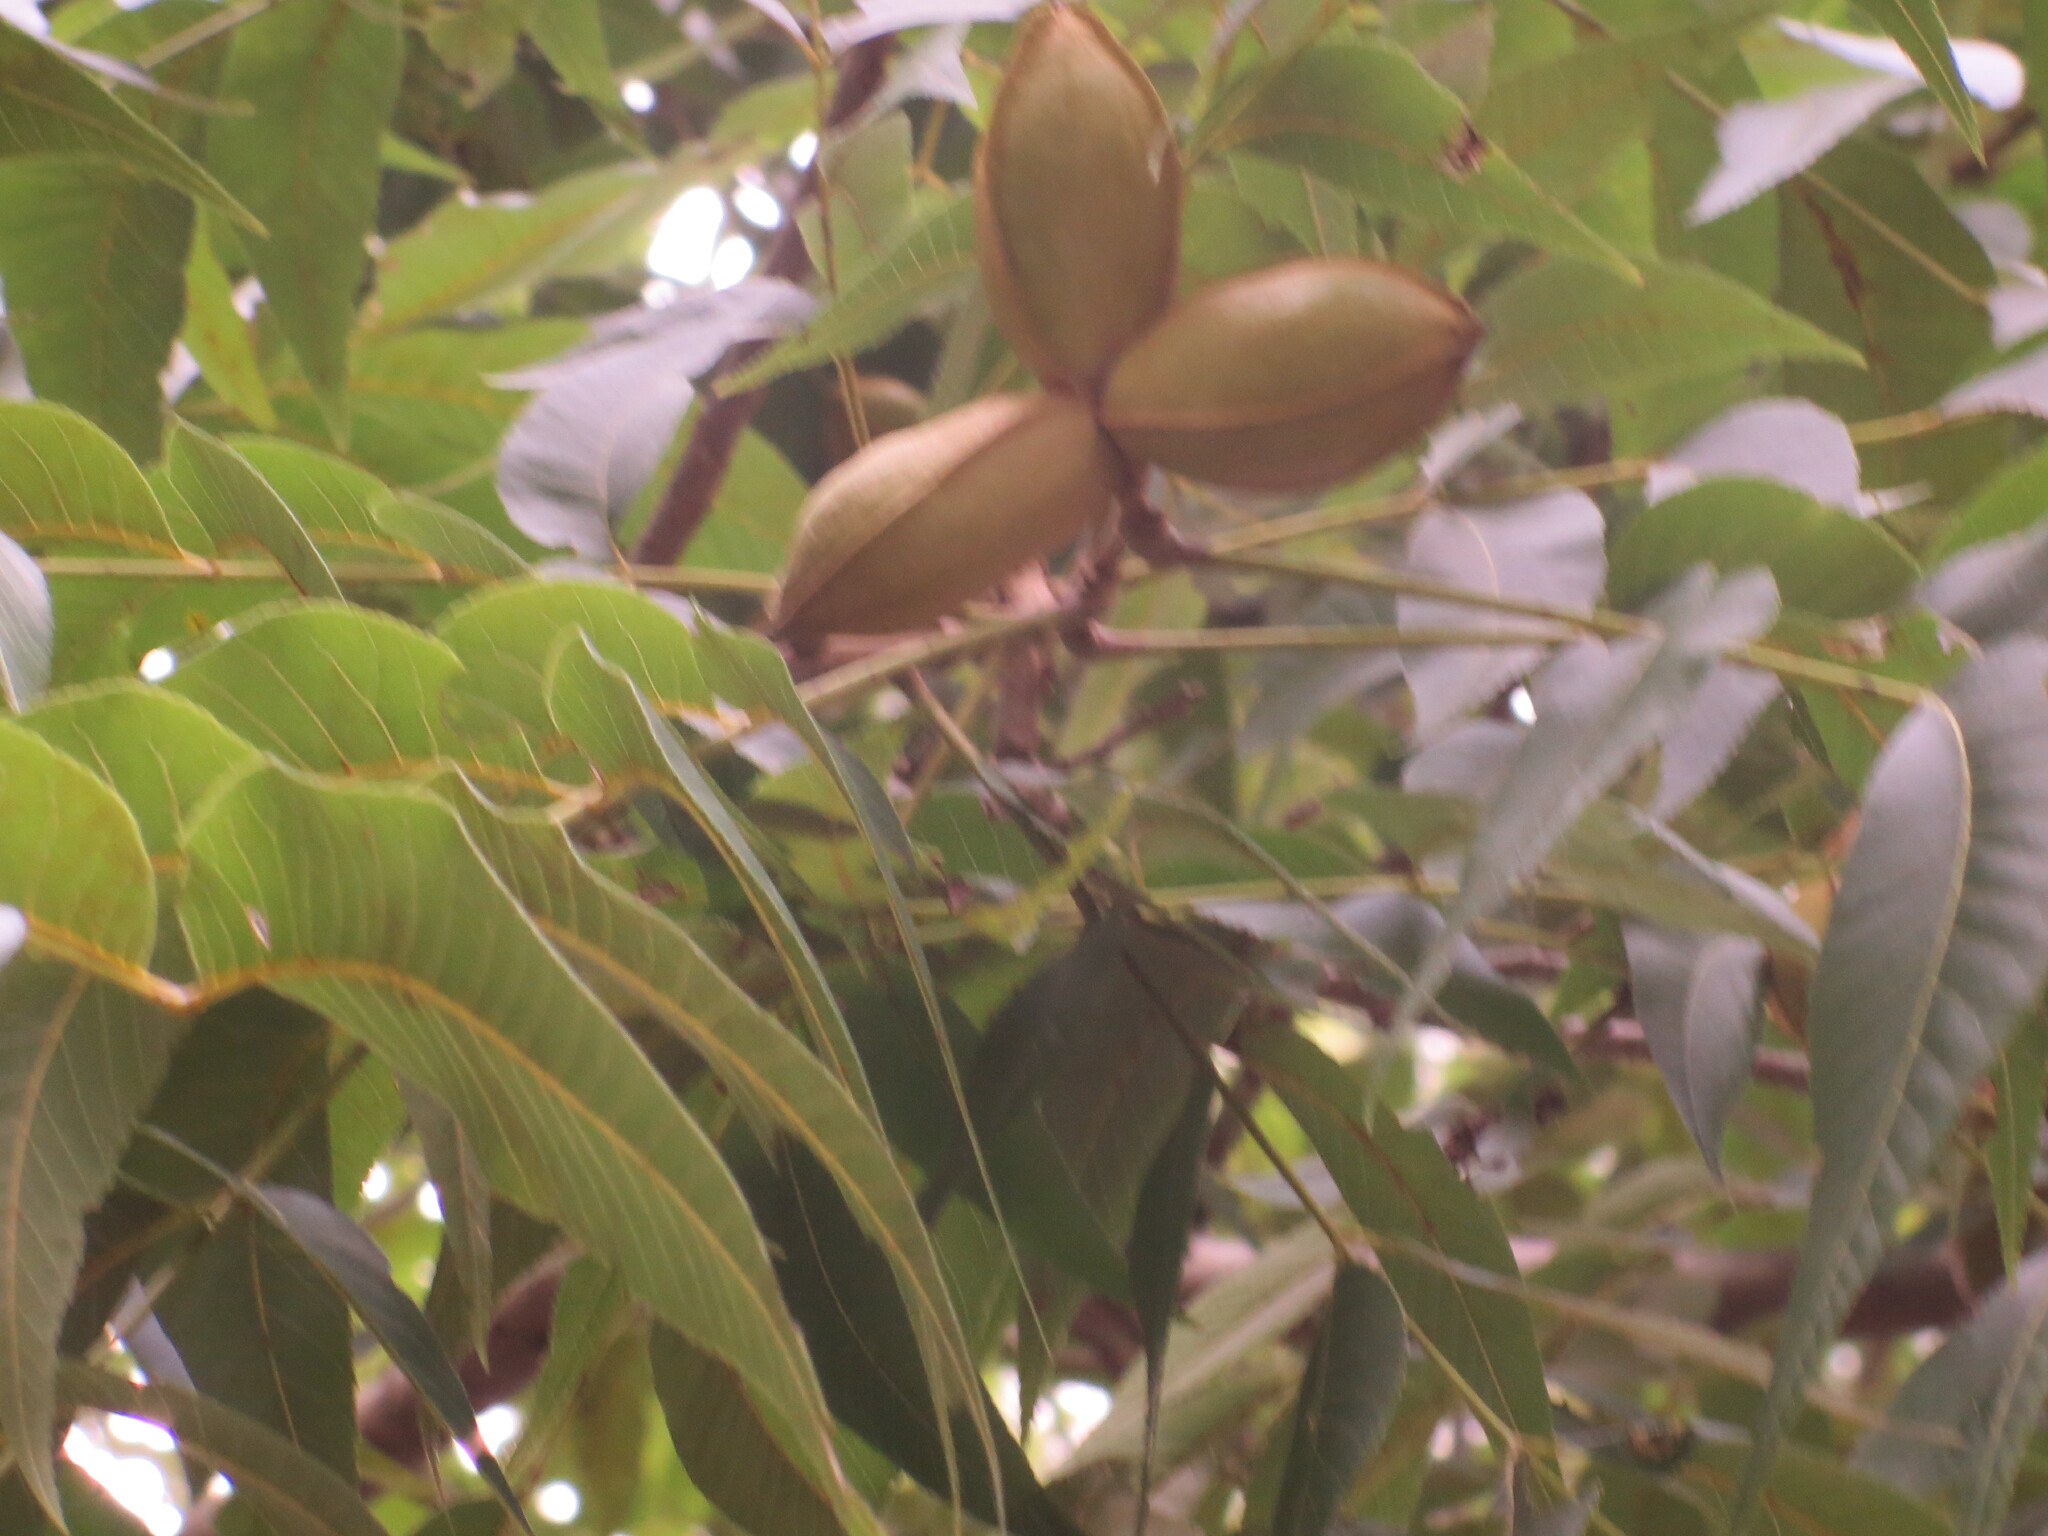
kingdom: Plantae
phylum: Tracheophyta
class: Magnoliopsida
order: Fagales
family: Juglandaceae
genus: Carya
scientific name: Carya illinoinensis
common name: Pecan
